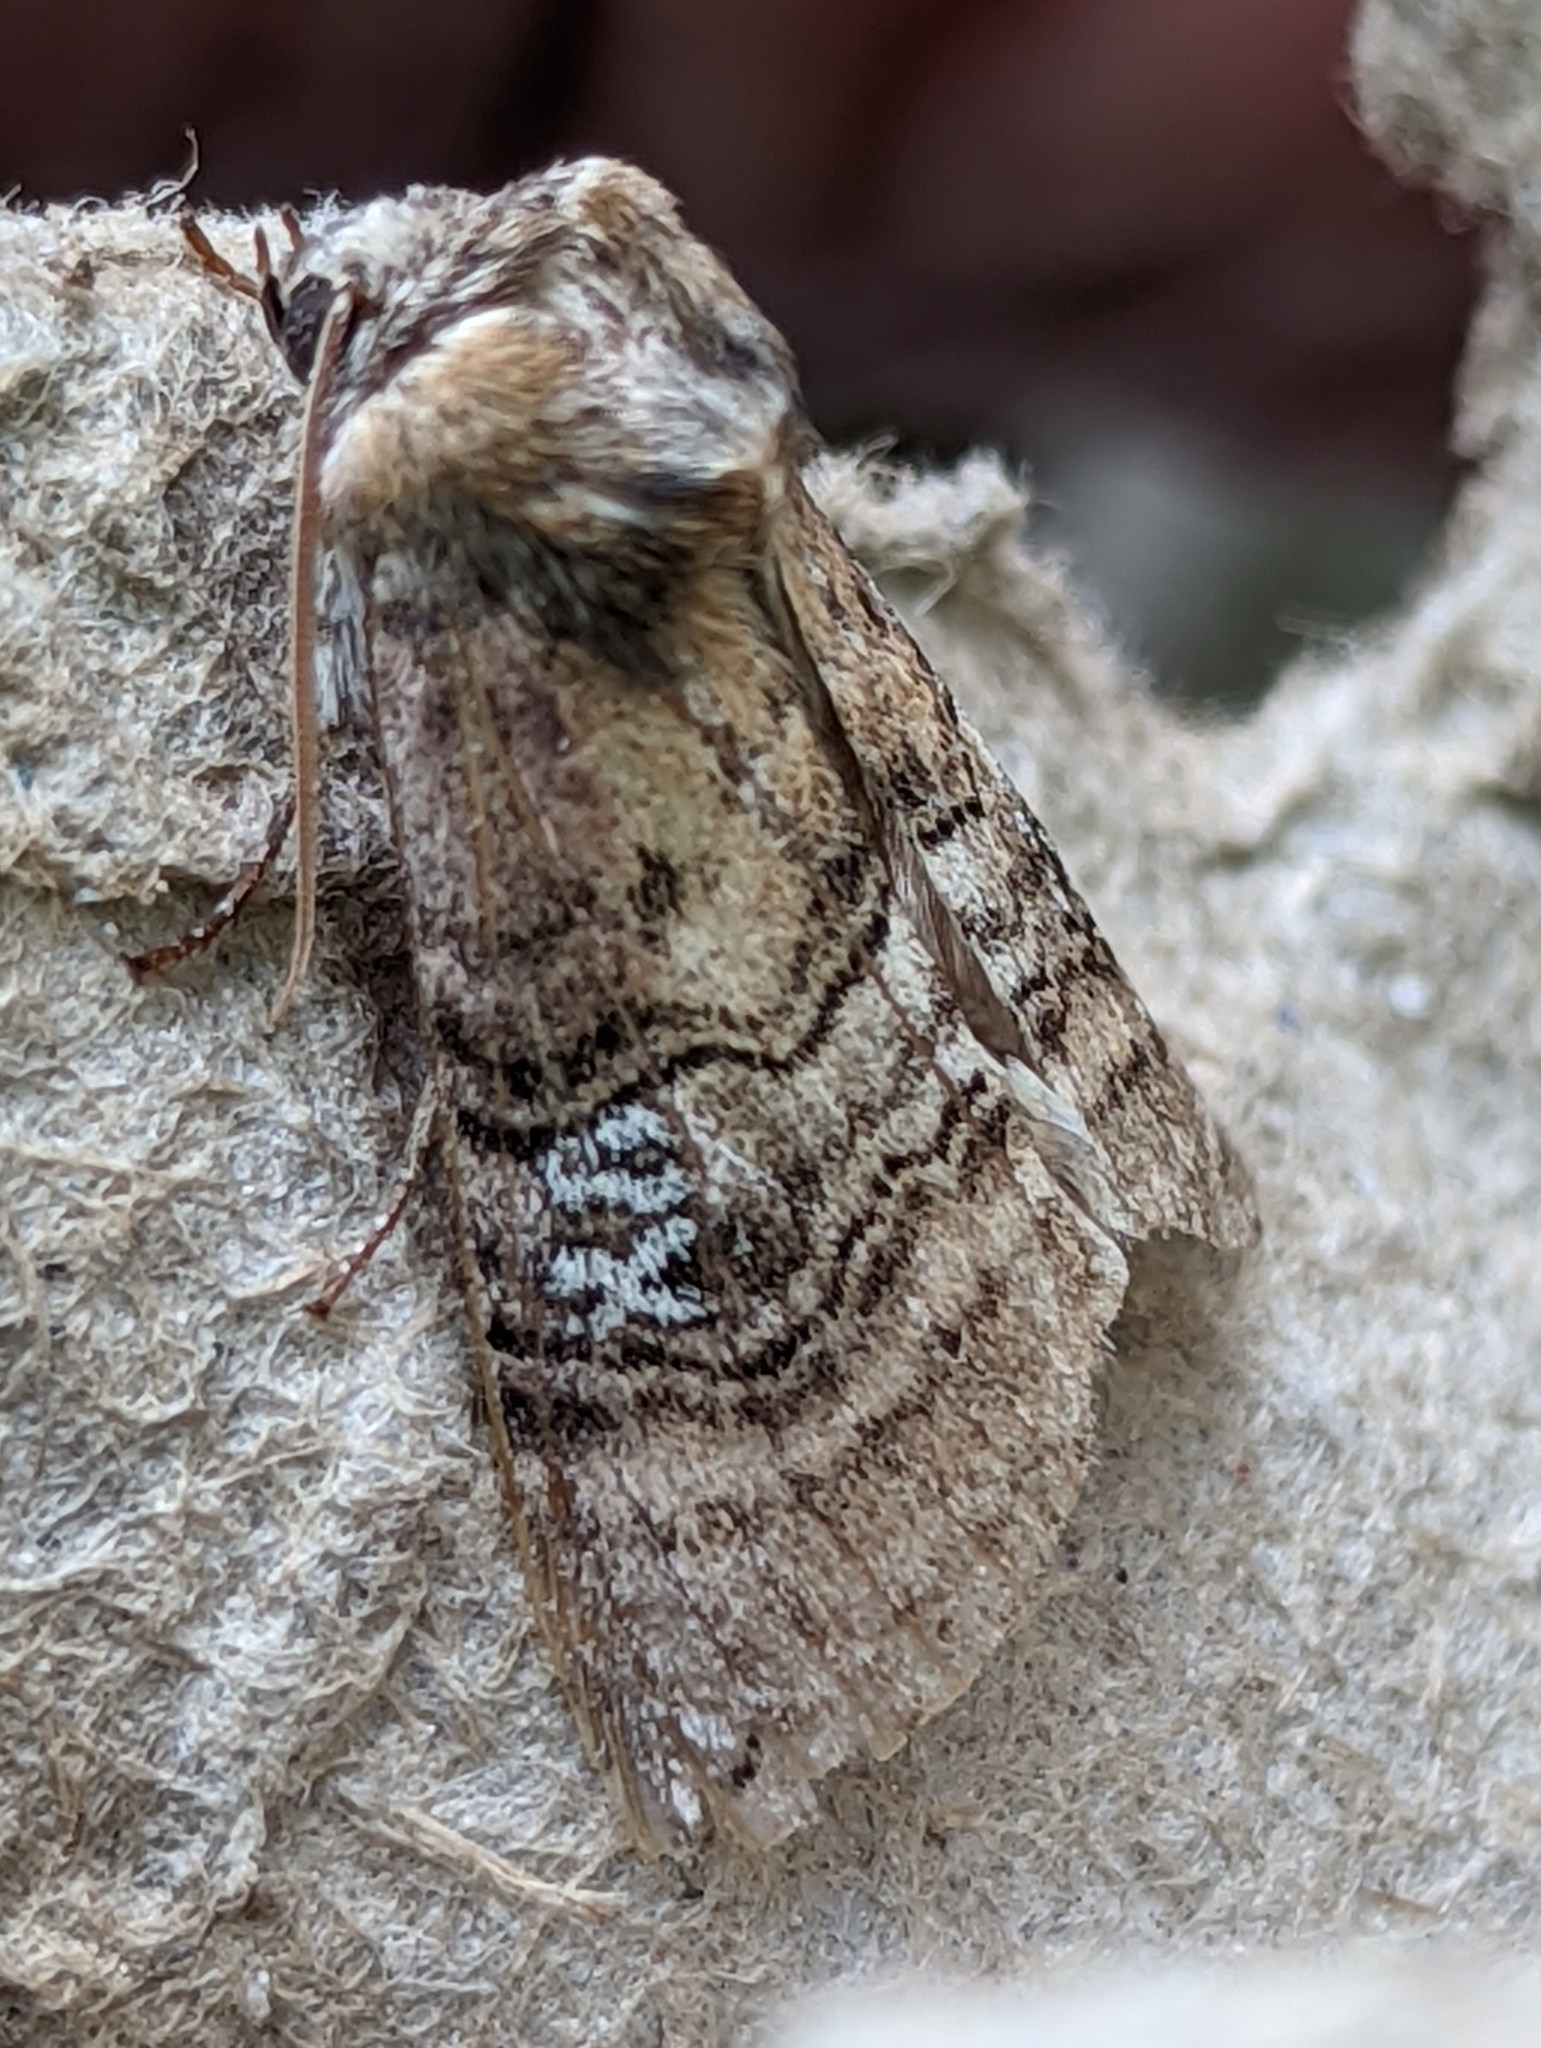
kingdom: Animalia
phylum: Arthropoda
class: Insecta
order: Lepidoptera
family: Drepanidae
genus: Tethea
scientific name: Tethea ocularis
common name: Figure of eighty
